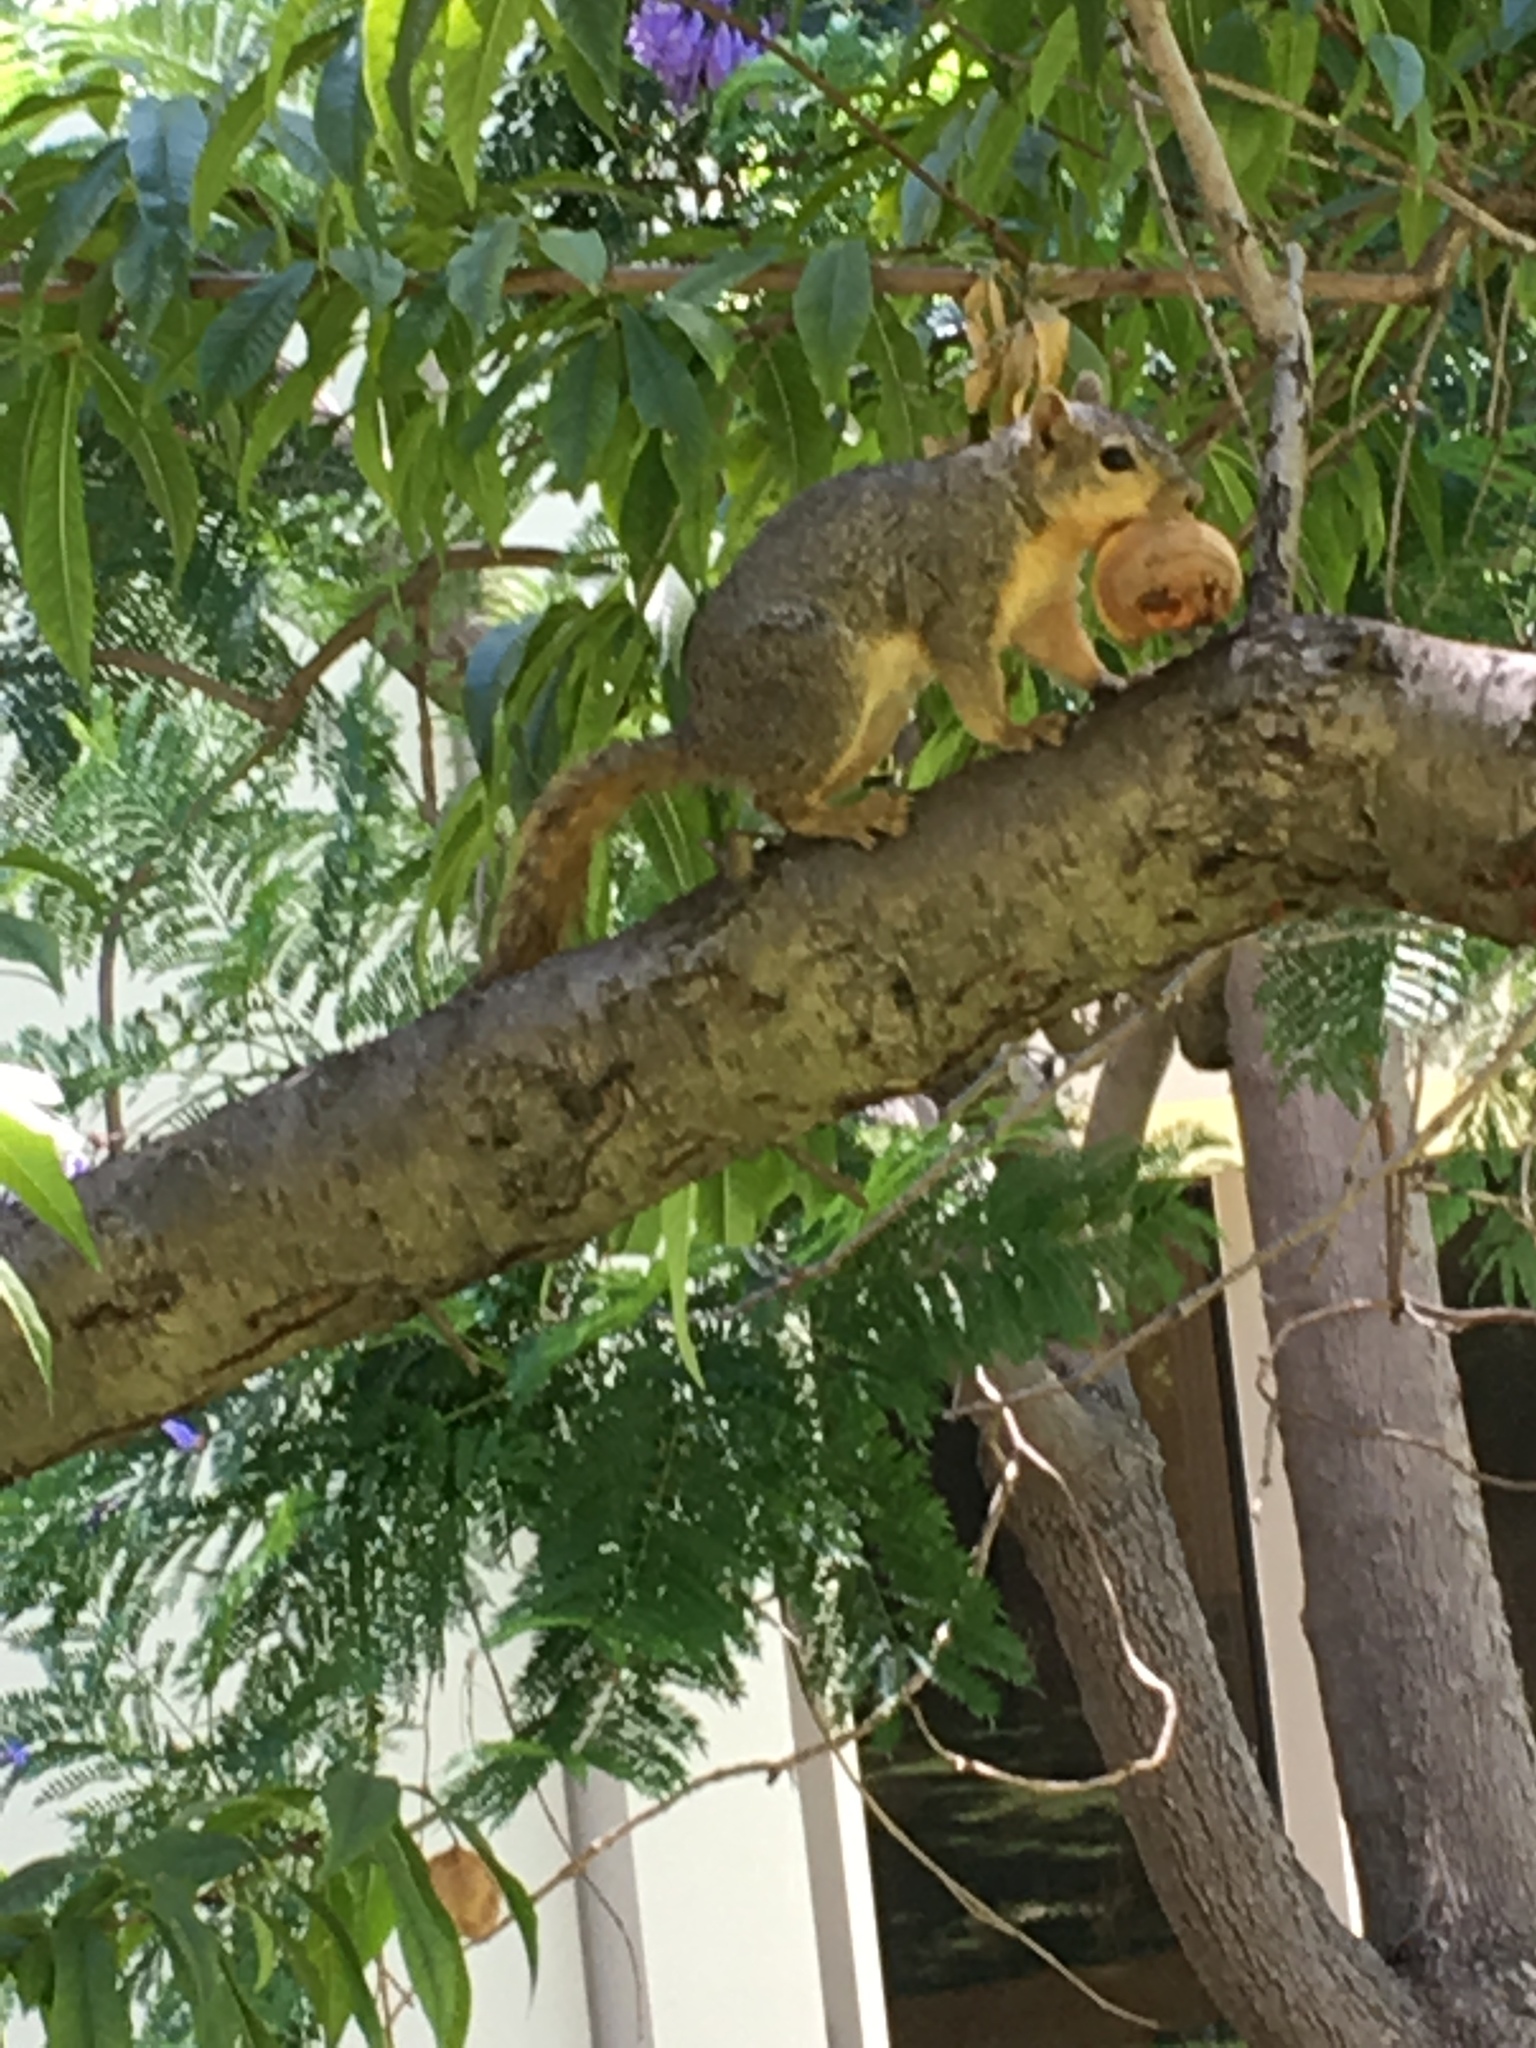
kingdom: Animalia
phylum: Chordata
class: Mammalia
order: Rodentia
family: Sciuridae
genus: Sciurus
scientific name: Sciurus niger
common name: Fox squirrel
